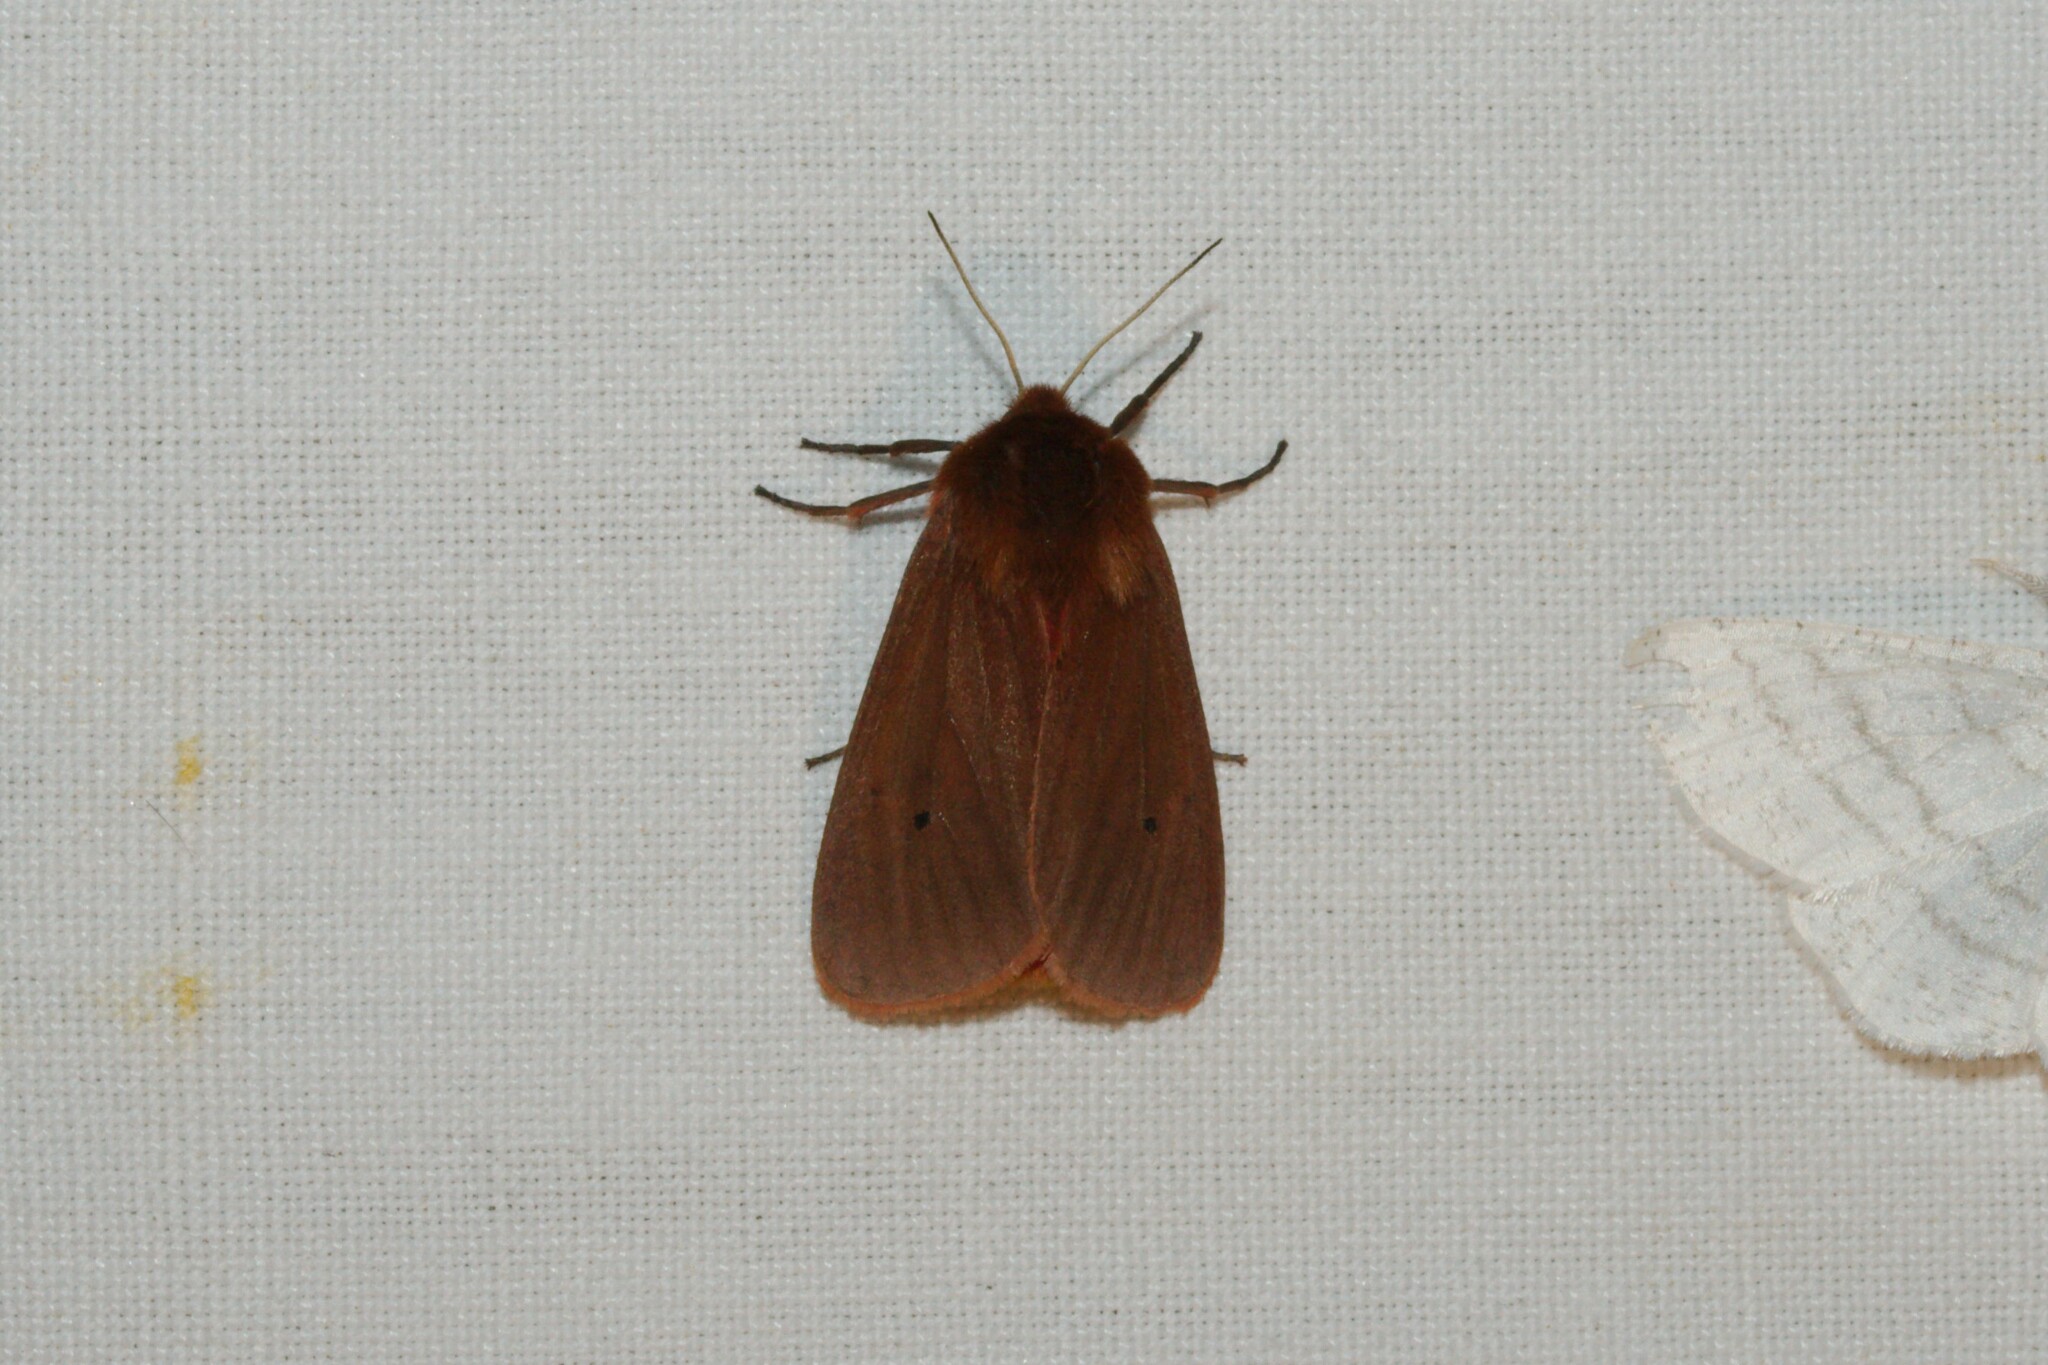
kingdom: Animalia
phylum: Arthropoda
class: Insecta
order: Lepidoptera
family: Erebidae
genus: Phragmatobia
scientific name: Phragmatobia fuliginosa
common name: Ruby tiger
